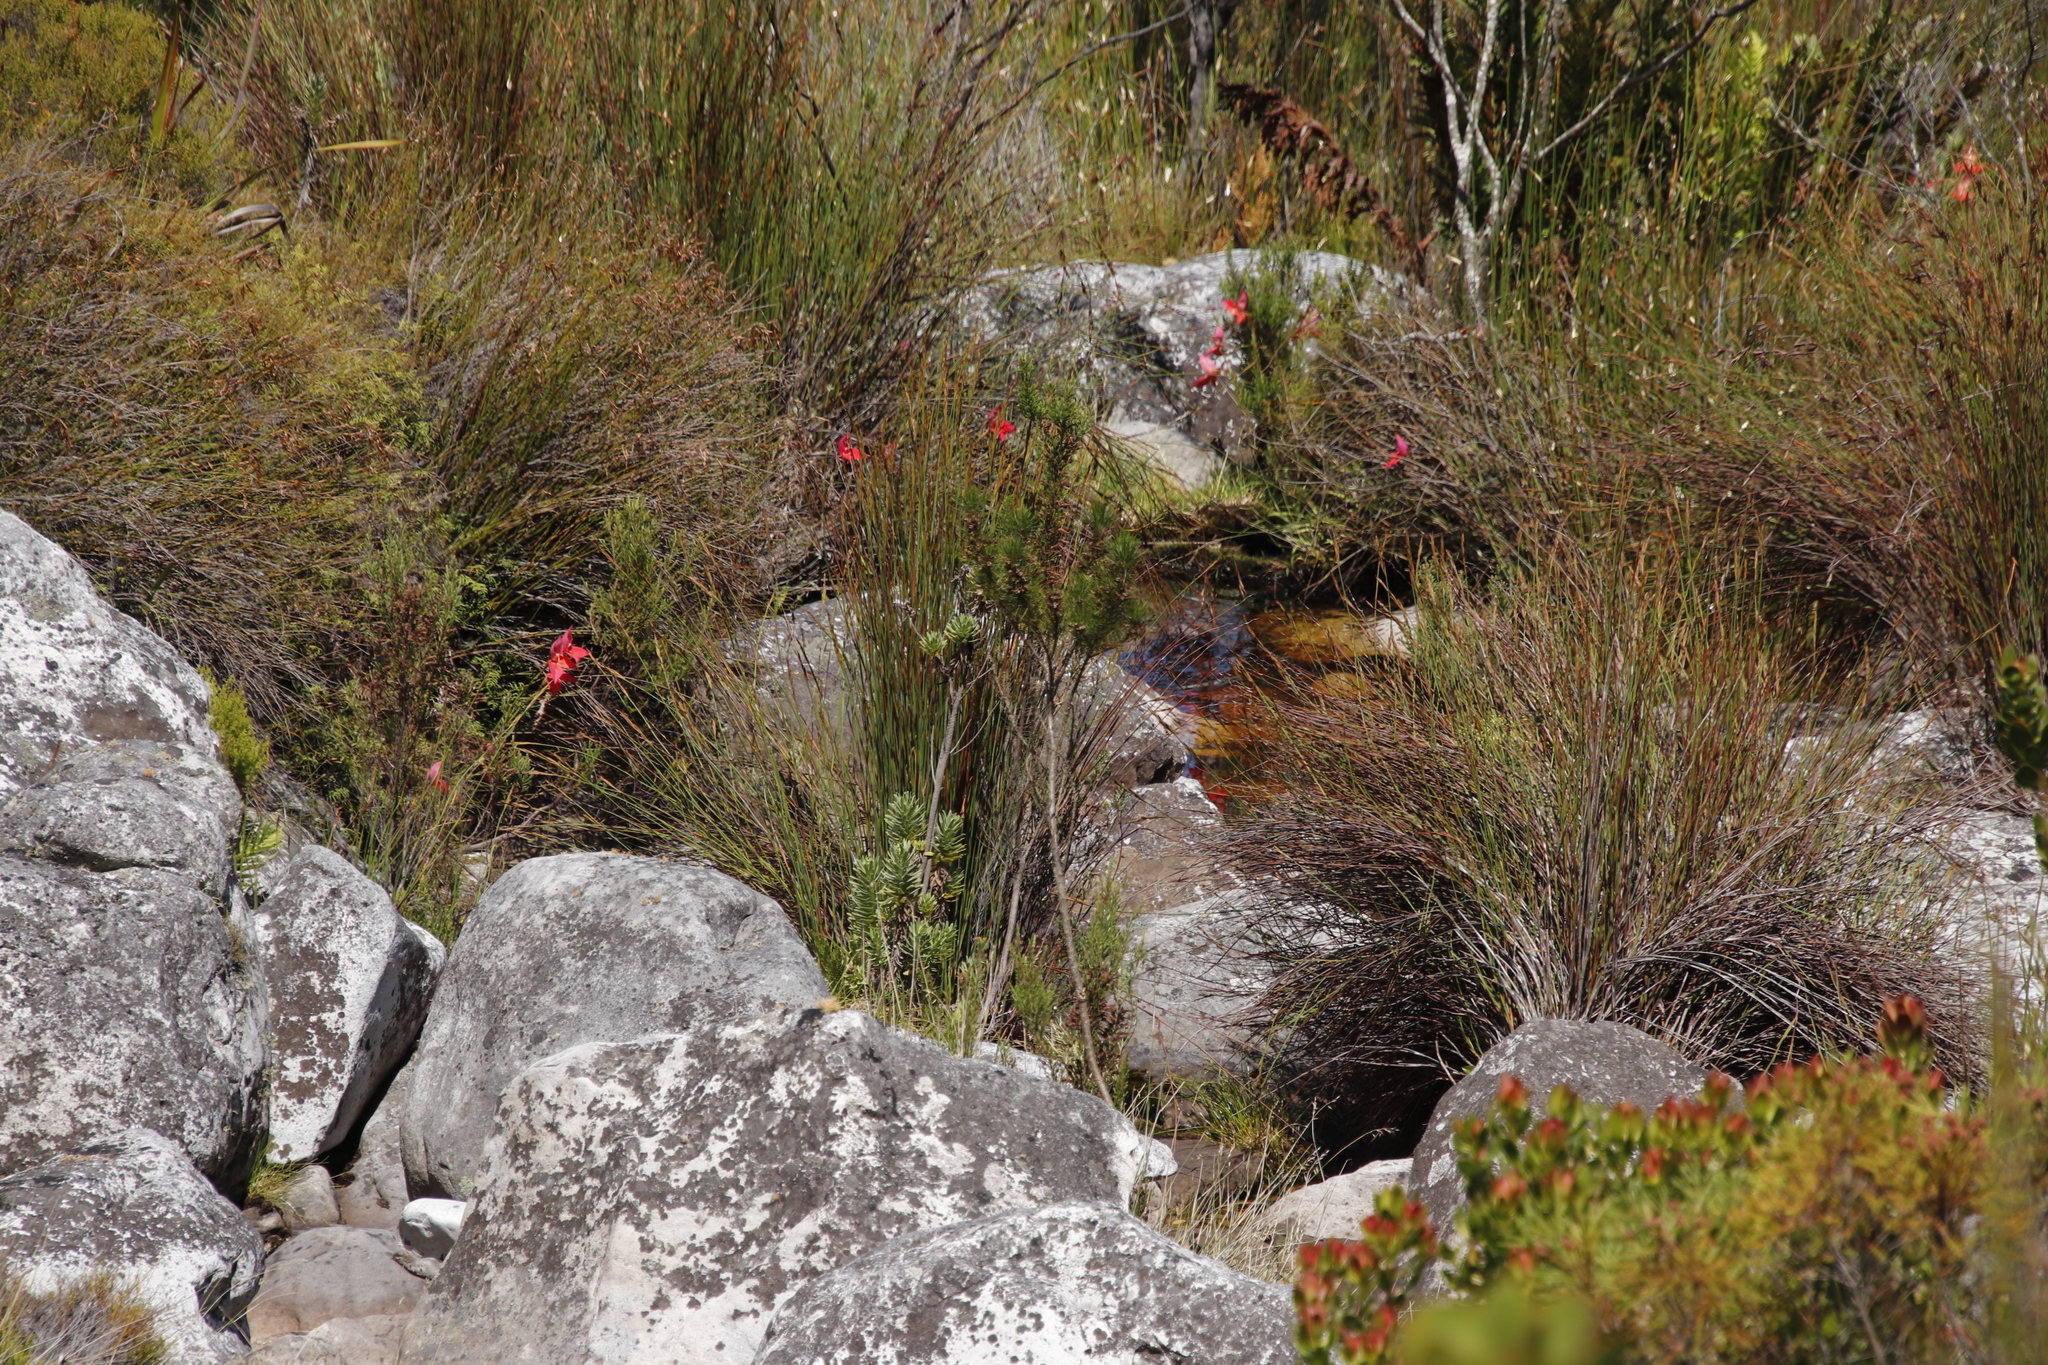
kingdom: Plantae
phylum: Tracheophyta
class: Liliopsida
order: Asparagales
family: Orchidaceae
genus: Disa
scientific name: Disa uniflora
